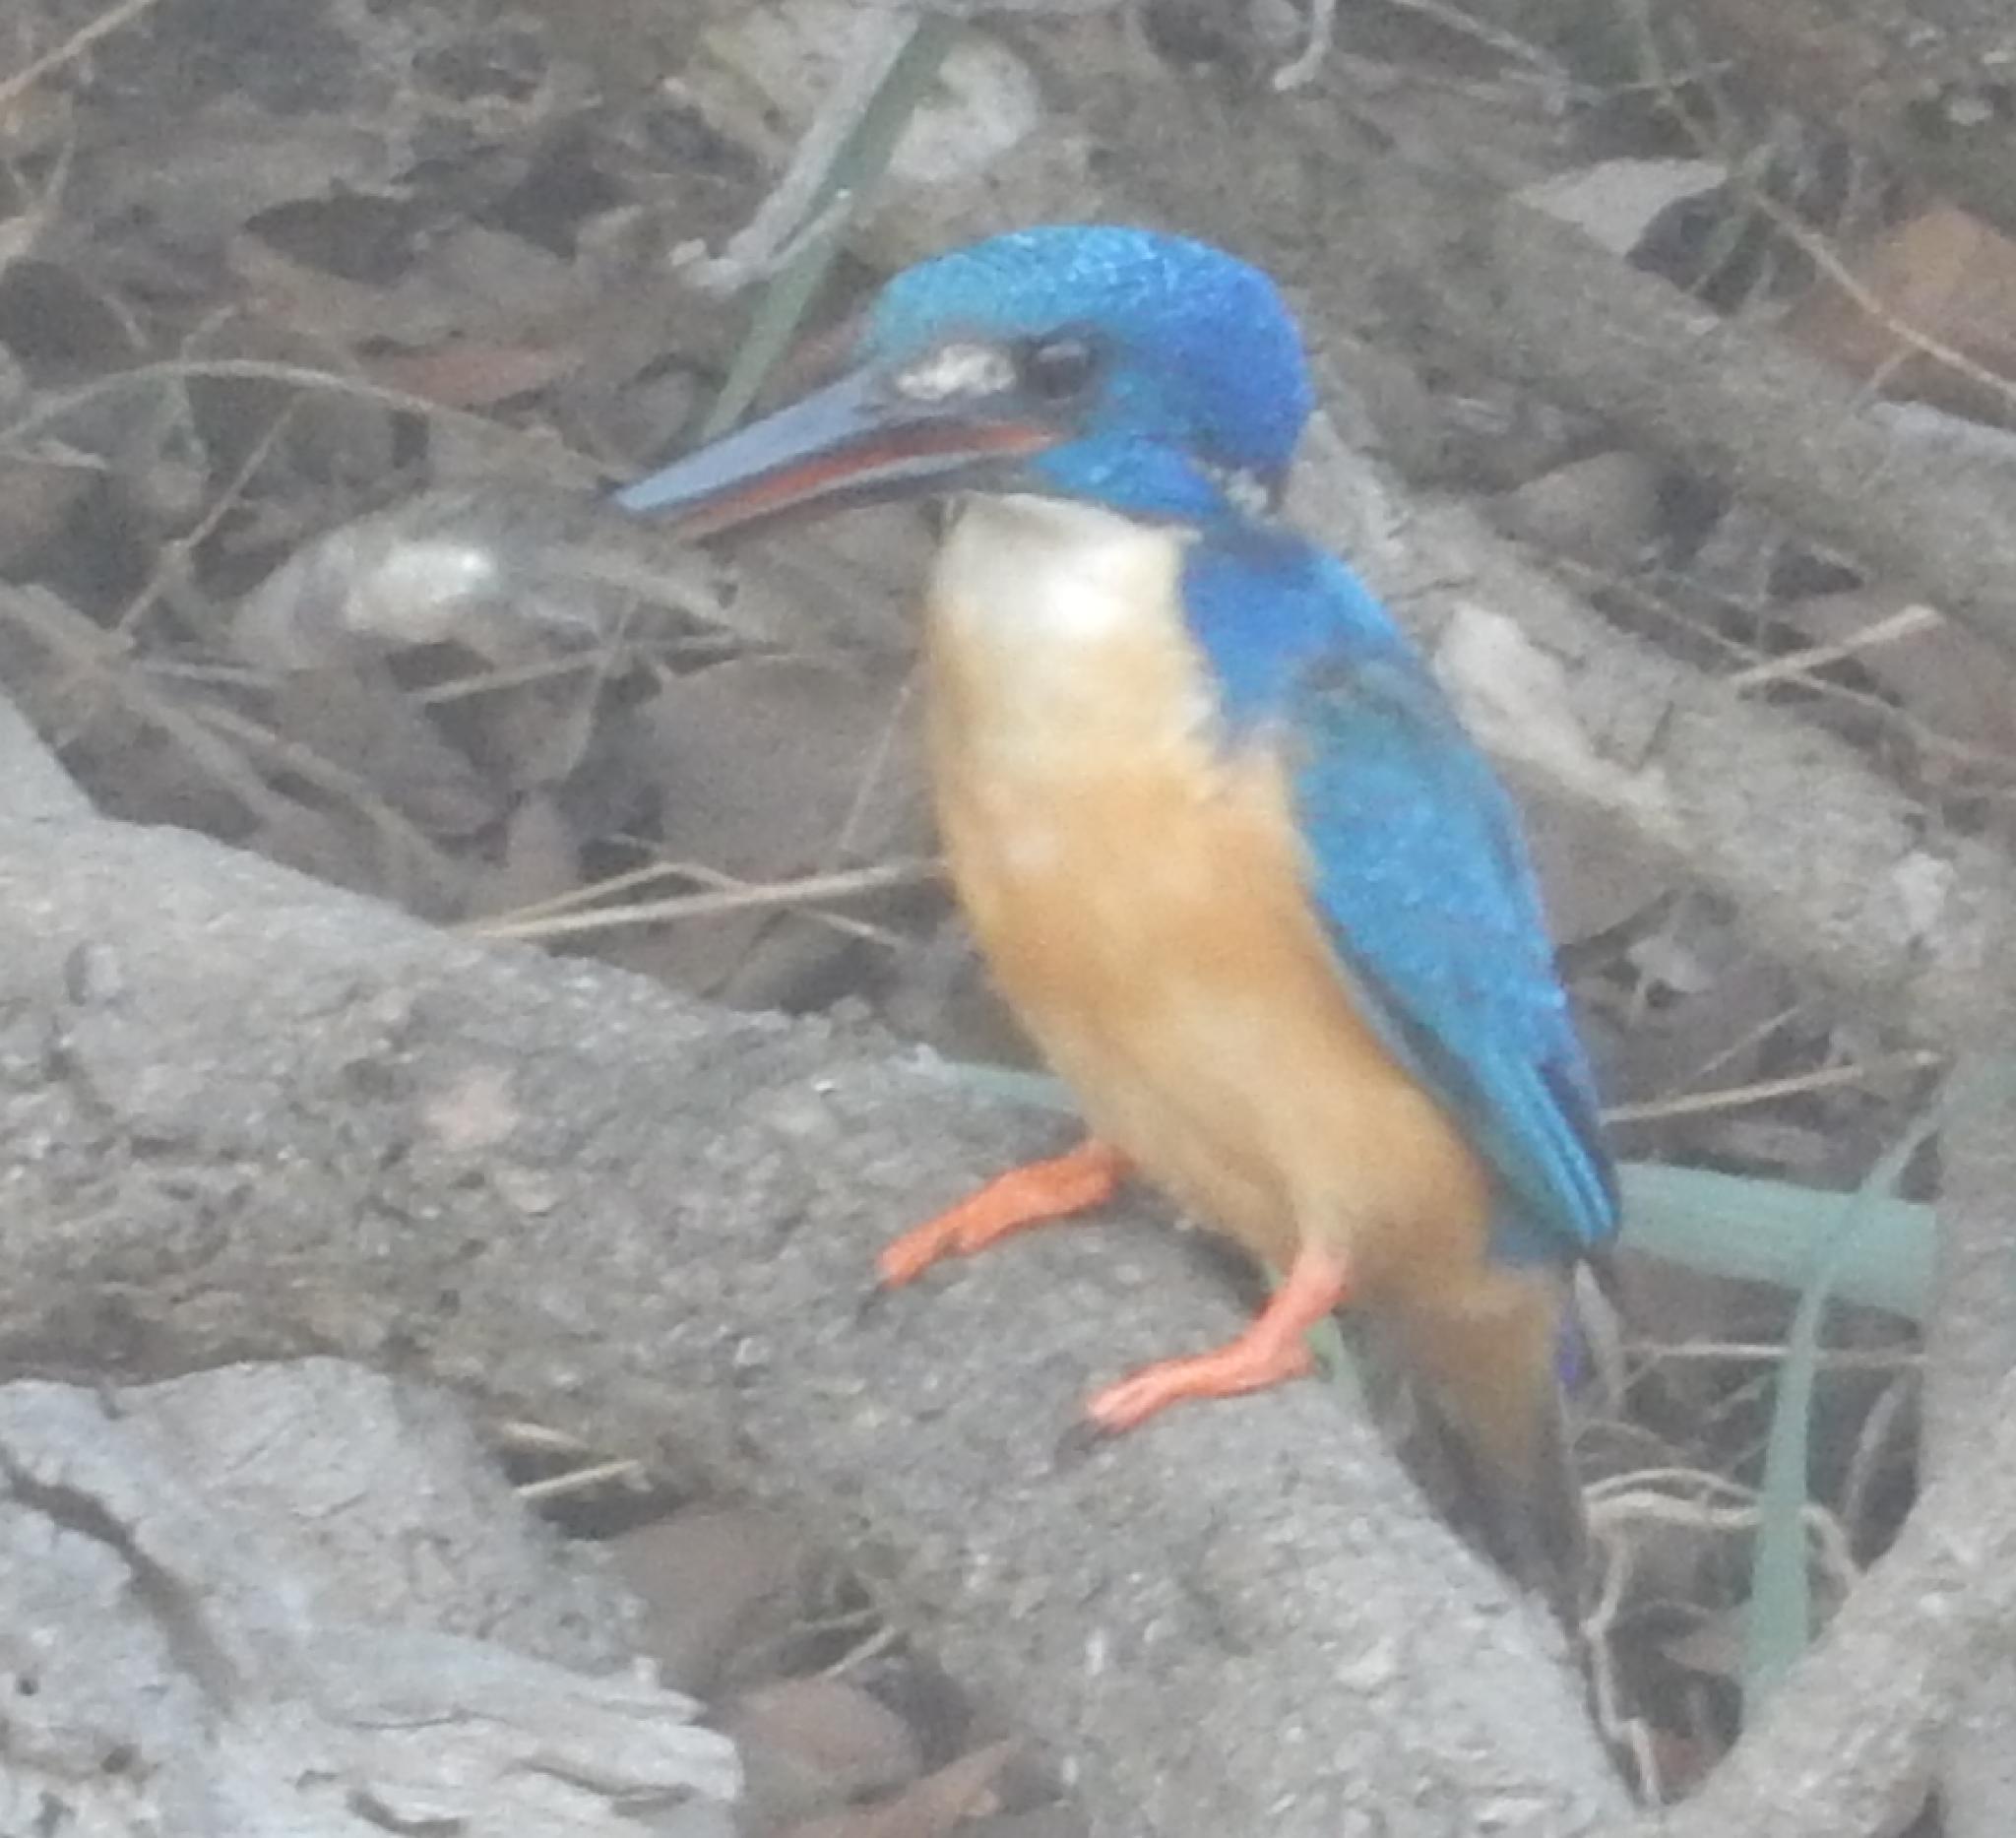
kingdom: Animalia
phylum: Chordata
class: Aves
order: Coraciiformes
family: Alcedinidae
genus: Alcedo
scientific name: Alcedo semitorquata
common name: Half-collared kingfisher
